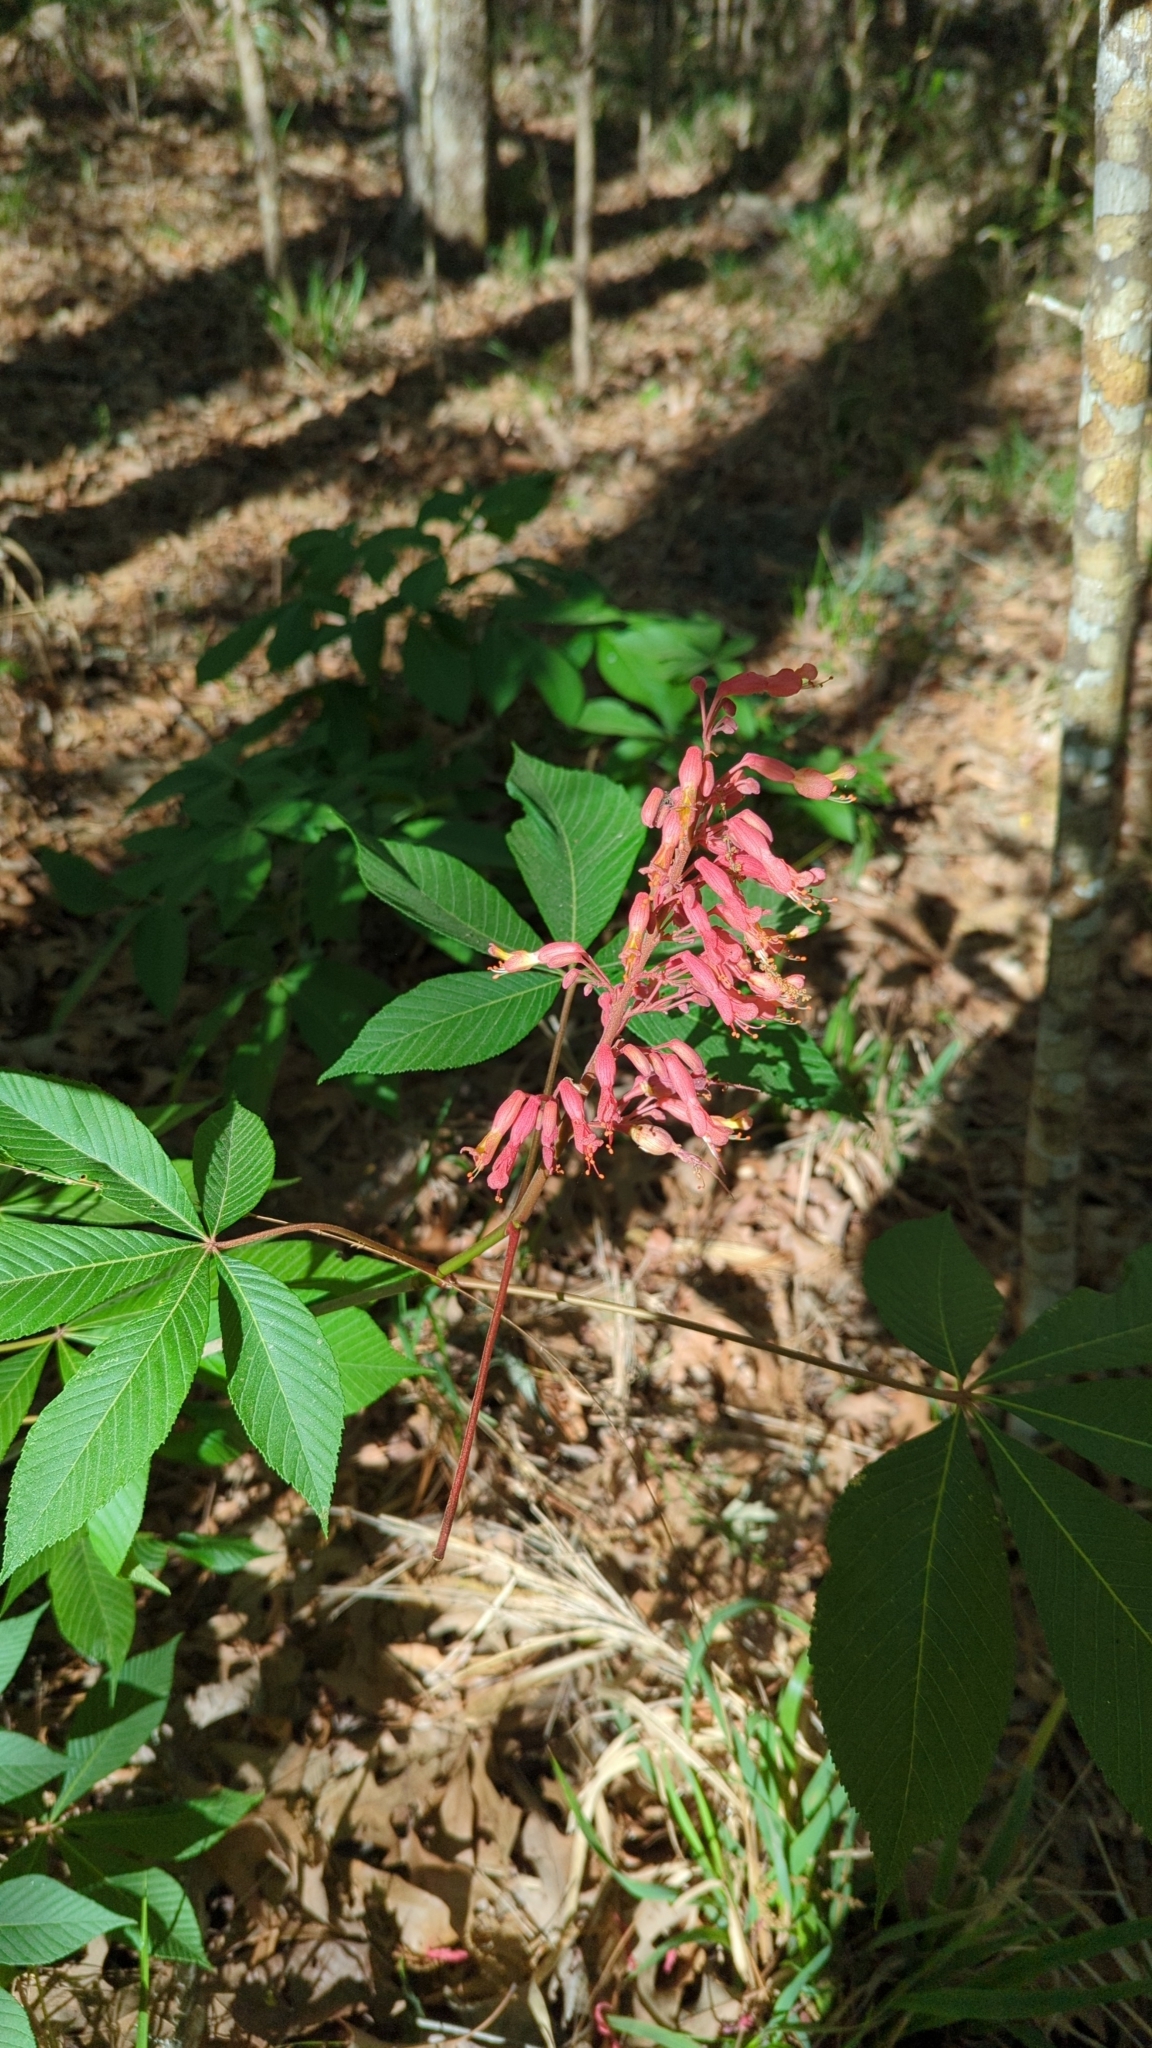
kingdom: Plantae
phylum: Tracheophyta
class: Magnoliopsida
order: Sapindales
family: Sapindaceae
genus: Aesculus
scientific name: Aesculus pavia
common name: Red buckeye
